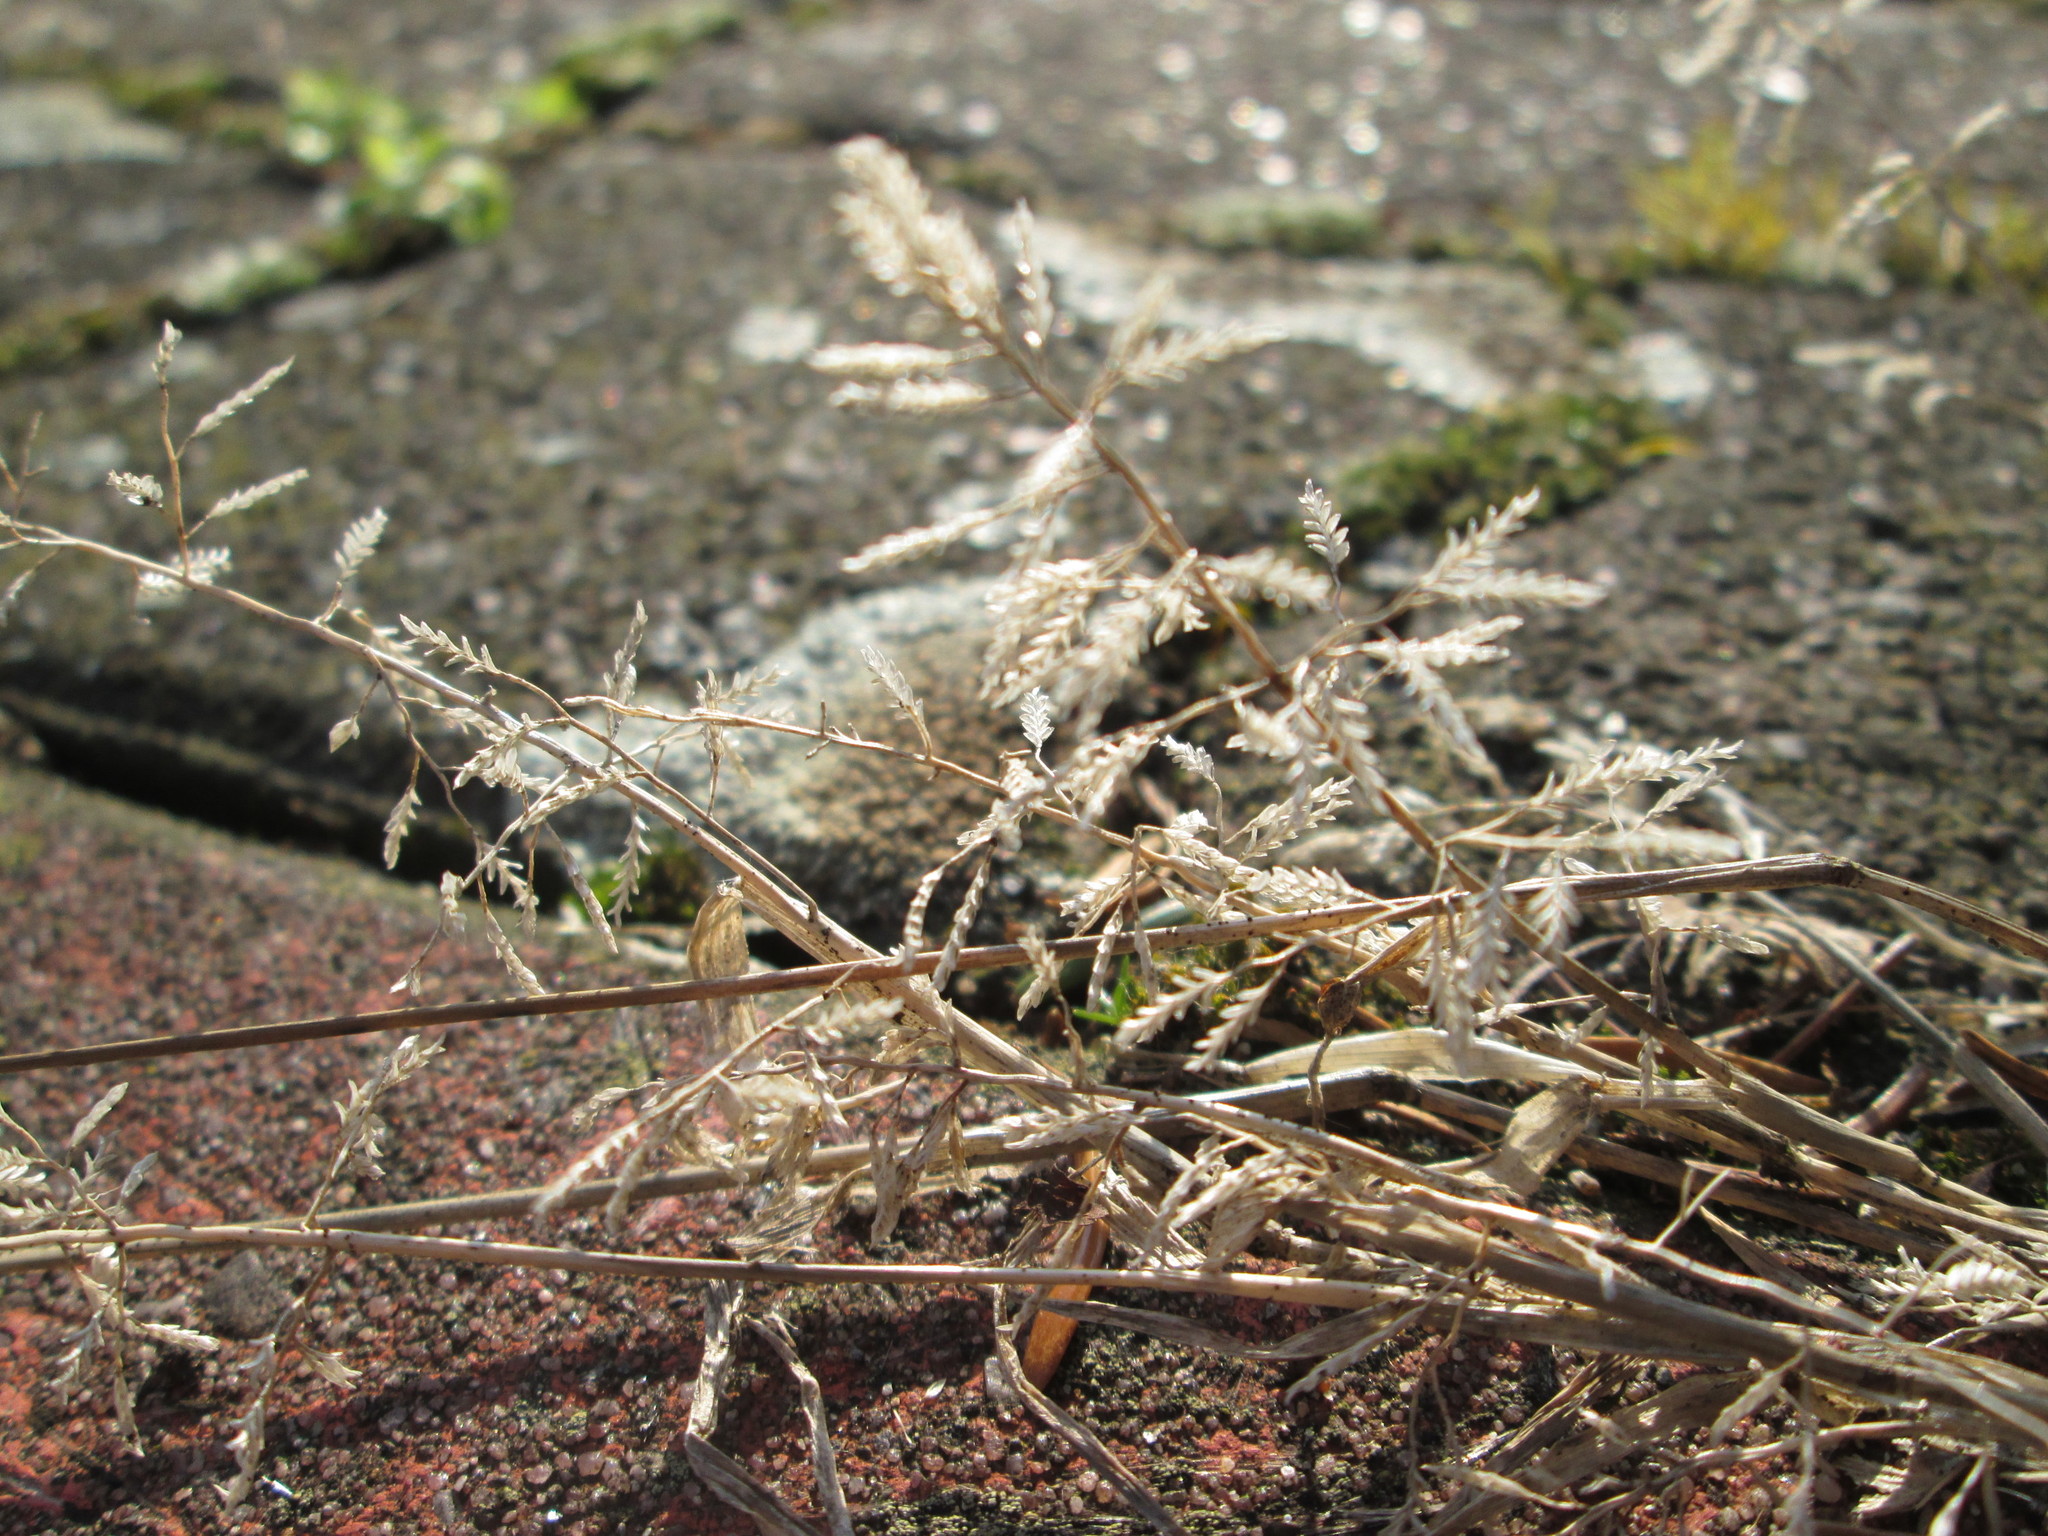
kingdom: Plantae
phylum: Tracheophyta
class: Liliopsida
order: Poales
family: Poaceae
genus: Eragrostis
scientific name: Eragrostis minor
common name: Small love-grass
